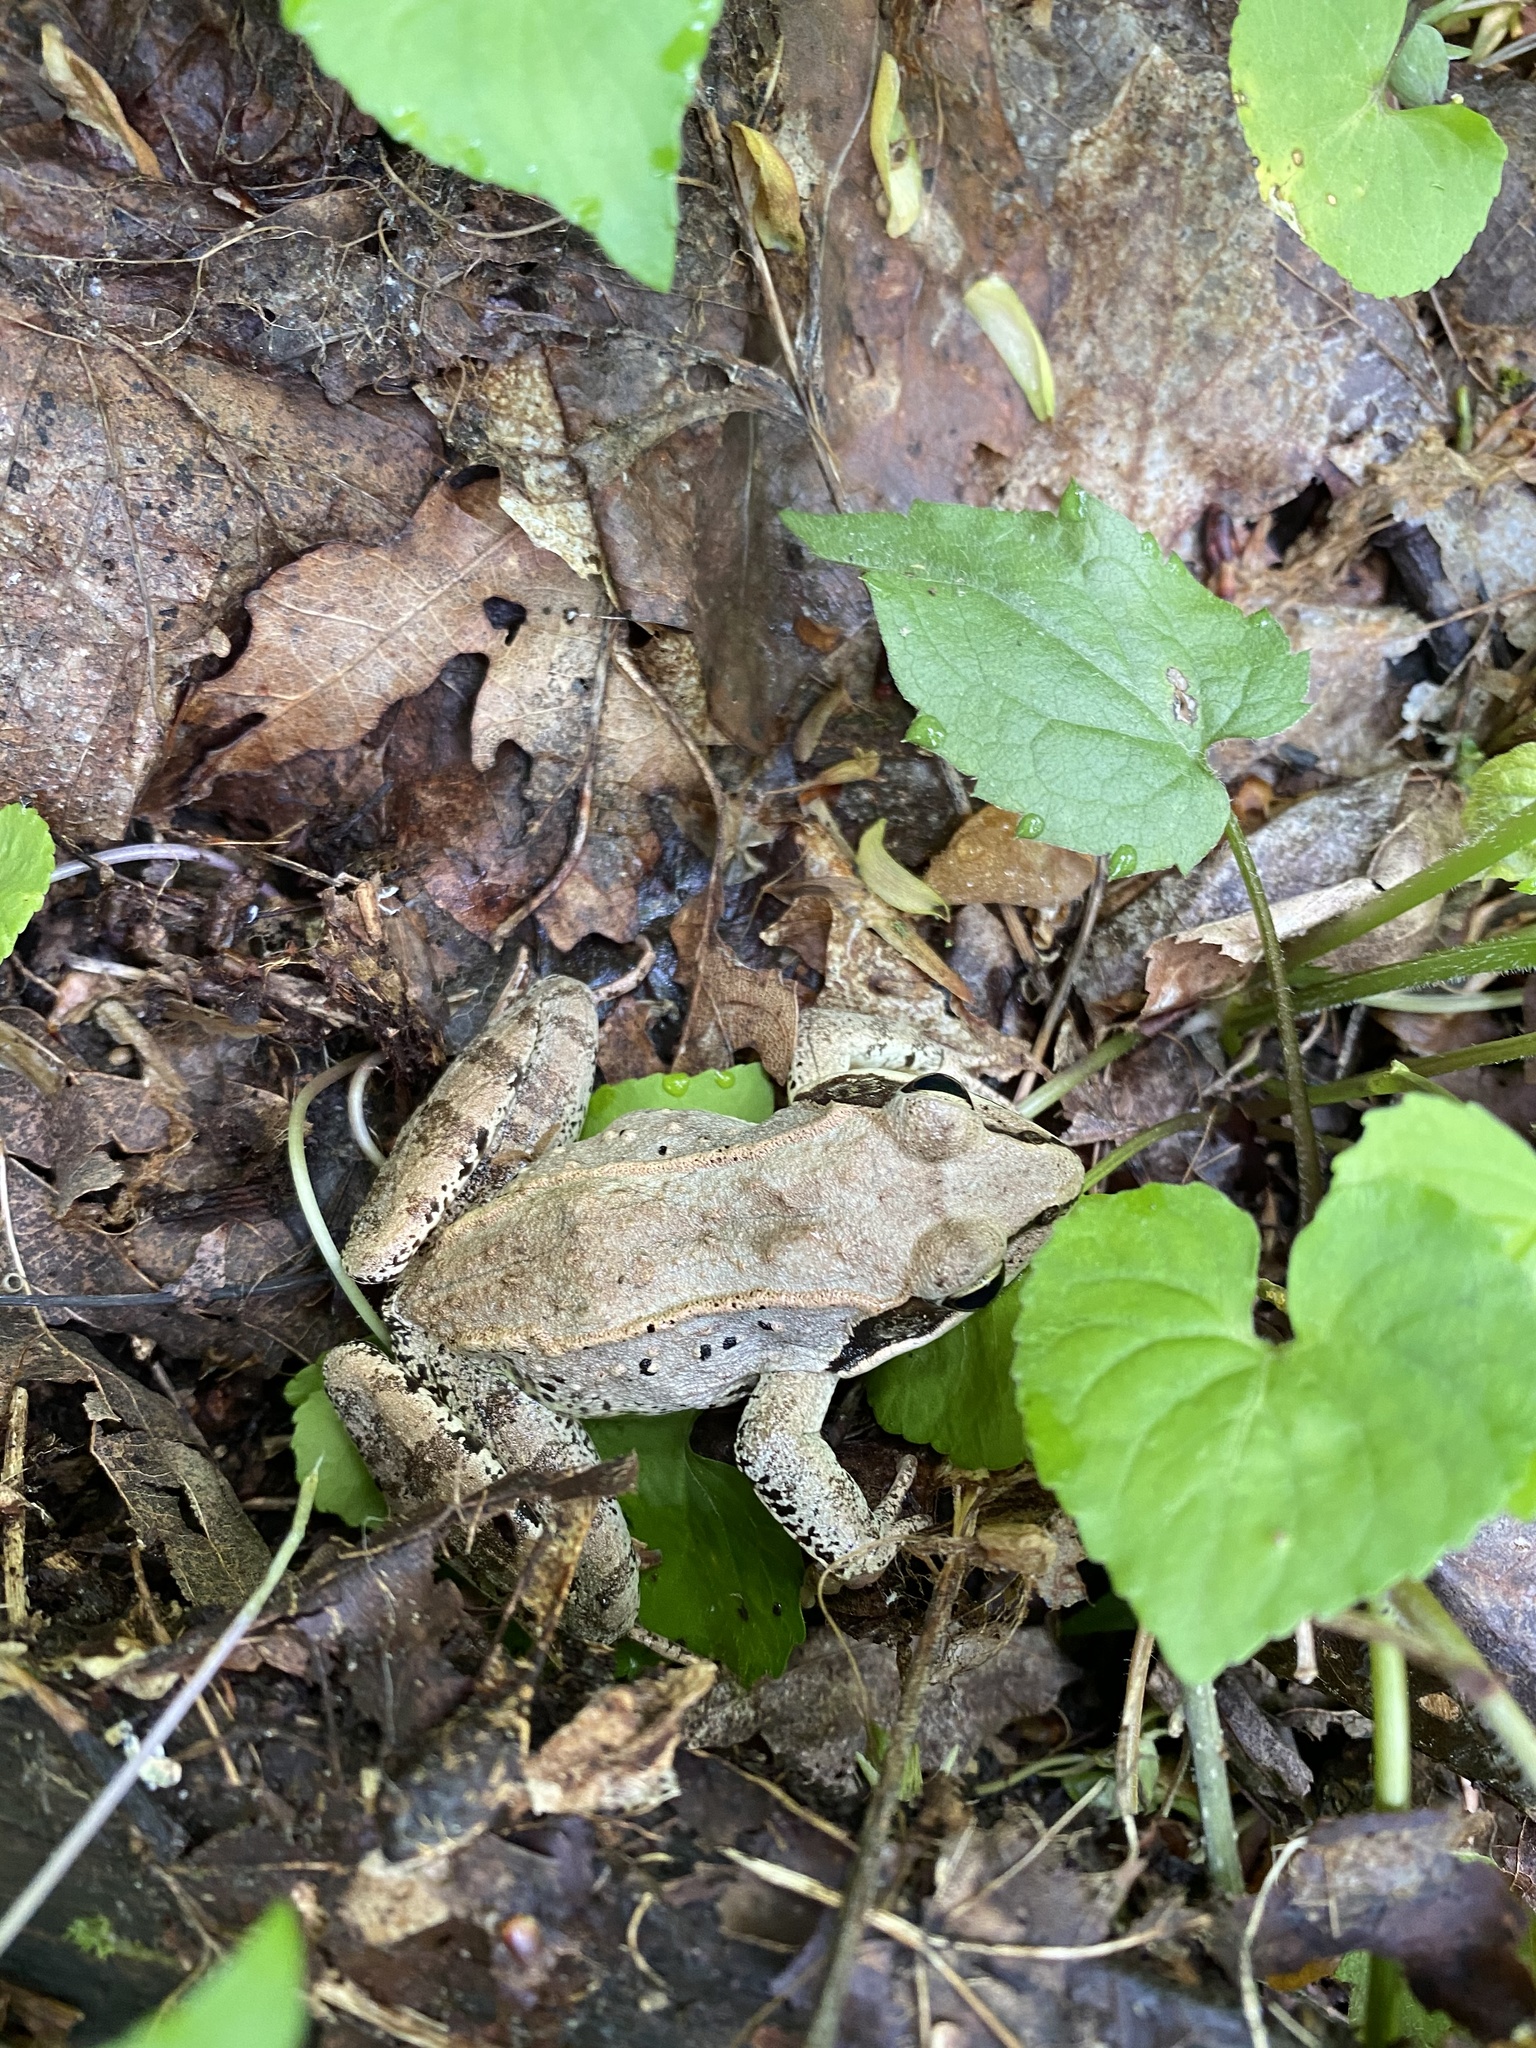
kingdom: Animalia
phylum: Chordata
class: Amphibia
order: Anura
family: Ranidae
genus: Lithobates
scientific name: Lithobates sylvaticus
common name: Wood frog
